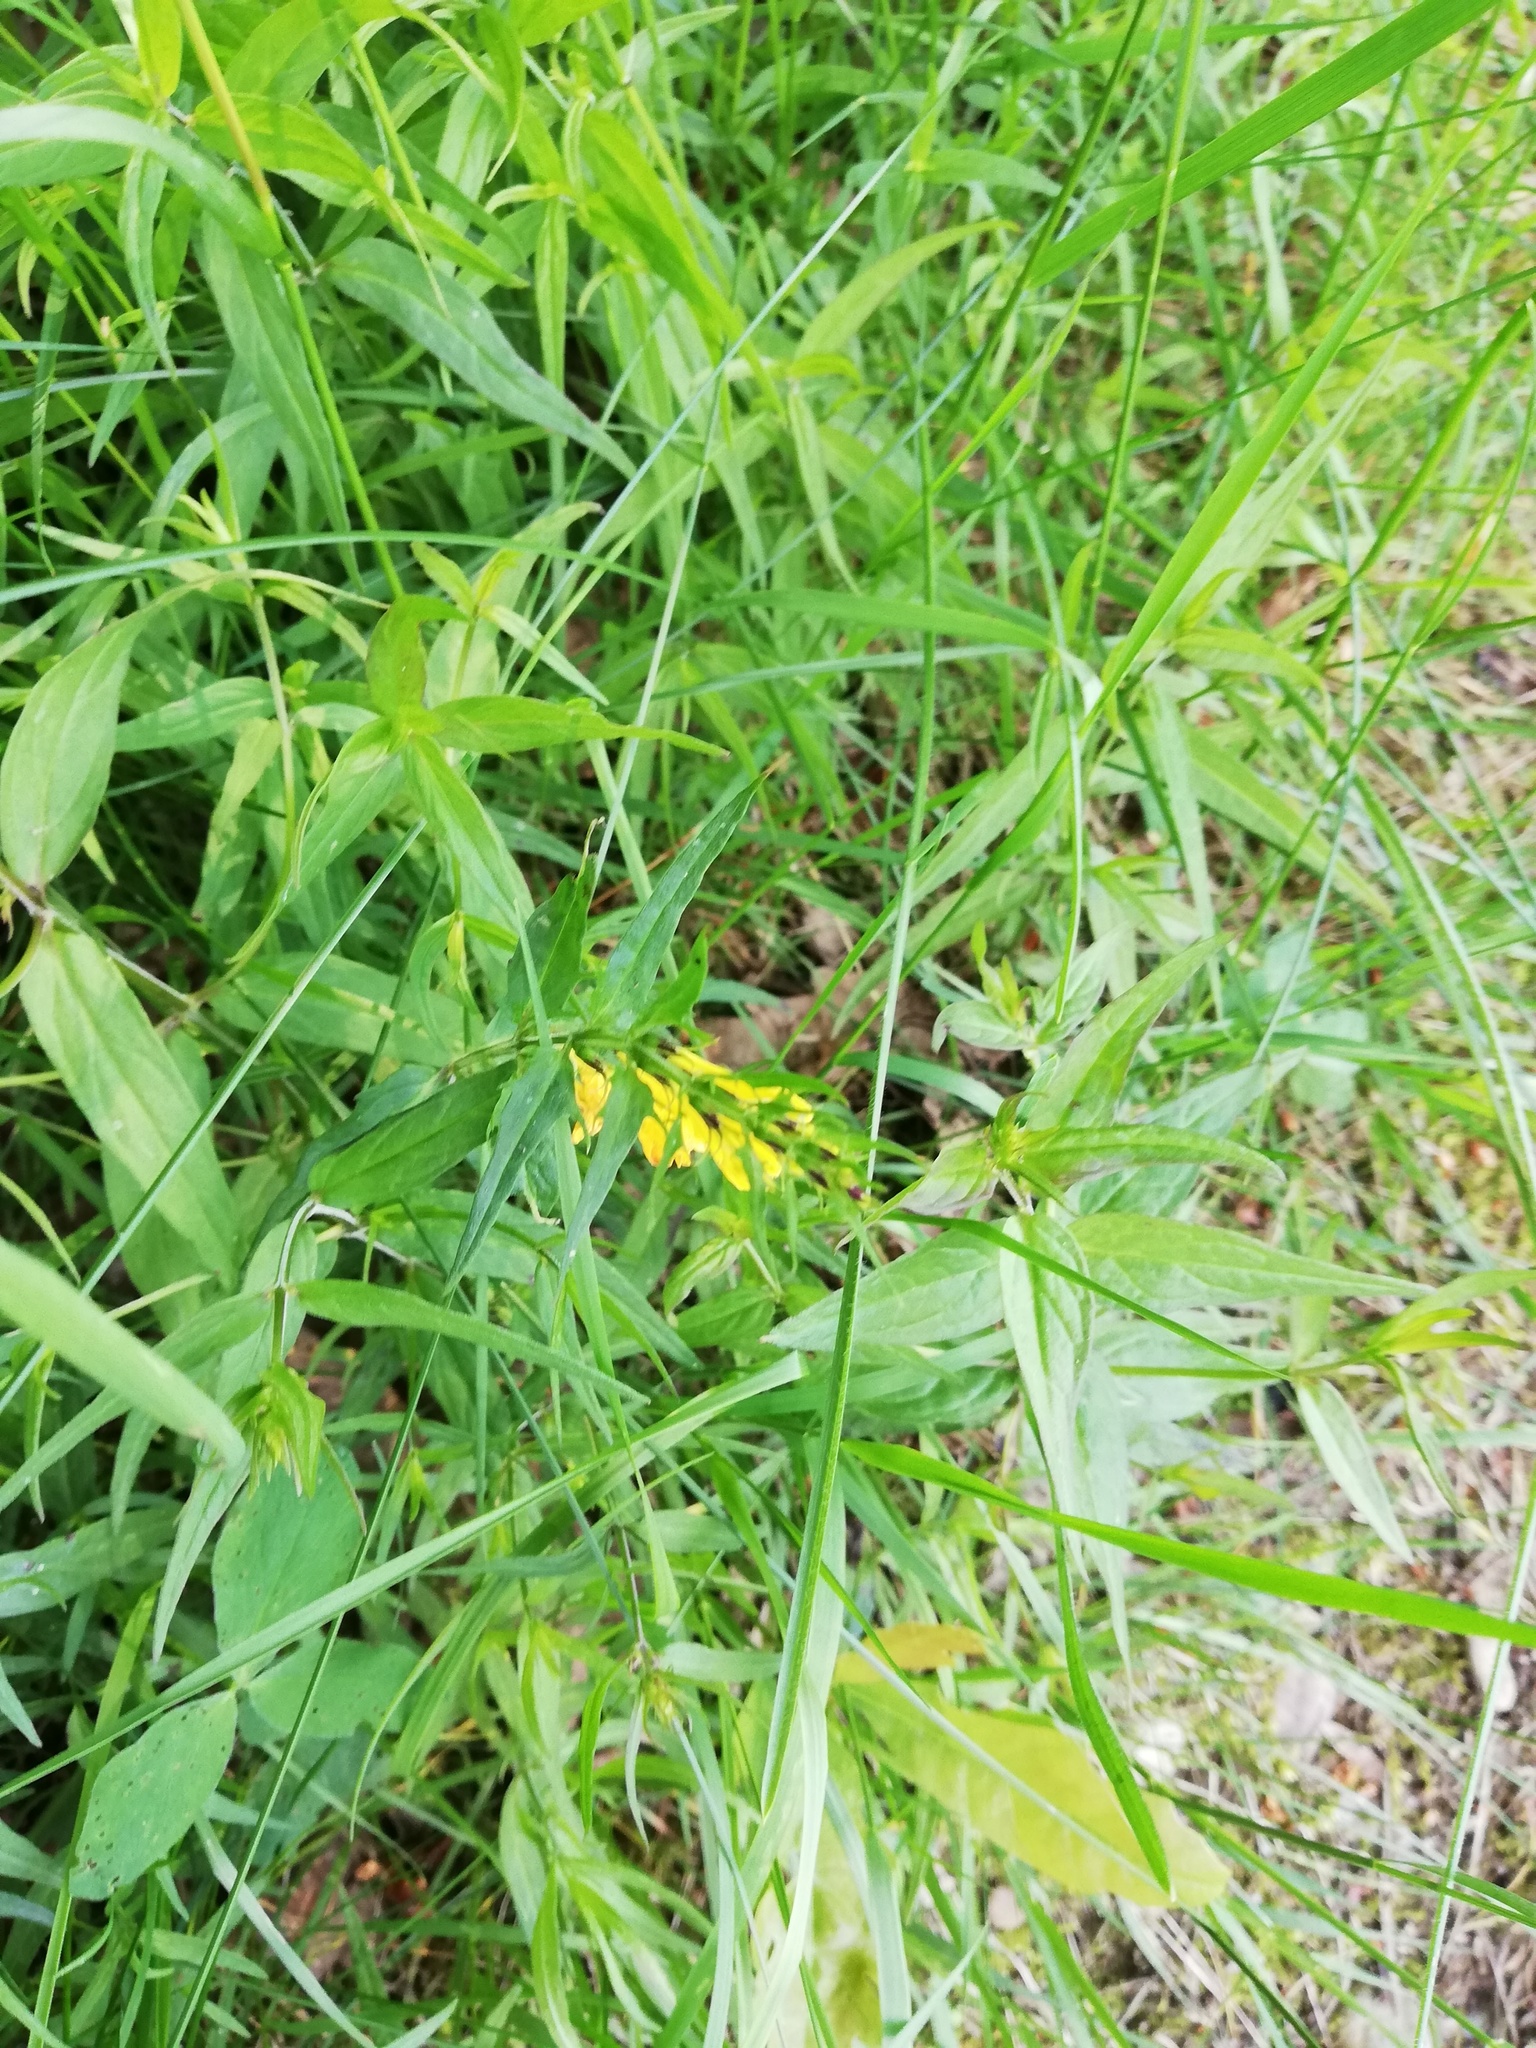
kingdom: Plantae
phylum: Tracheophyta
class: Magnoliopsida
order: Lamiales
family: Orobanchaceae
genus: Melampyrum
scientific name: Melampyrum pratense
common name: Common cow-wheat
